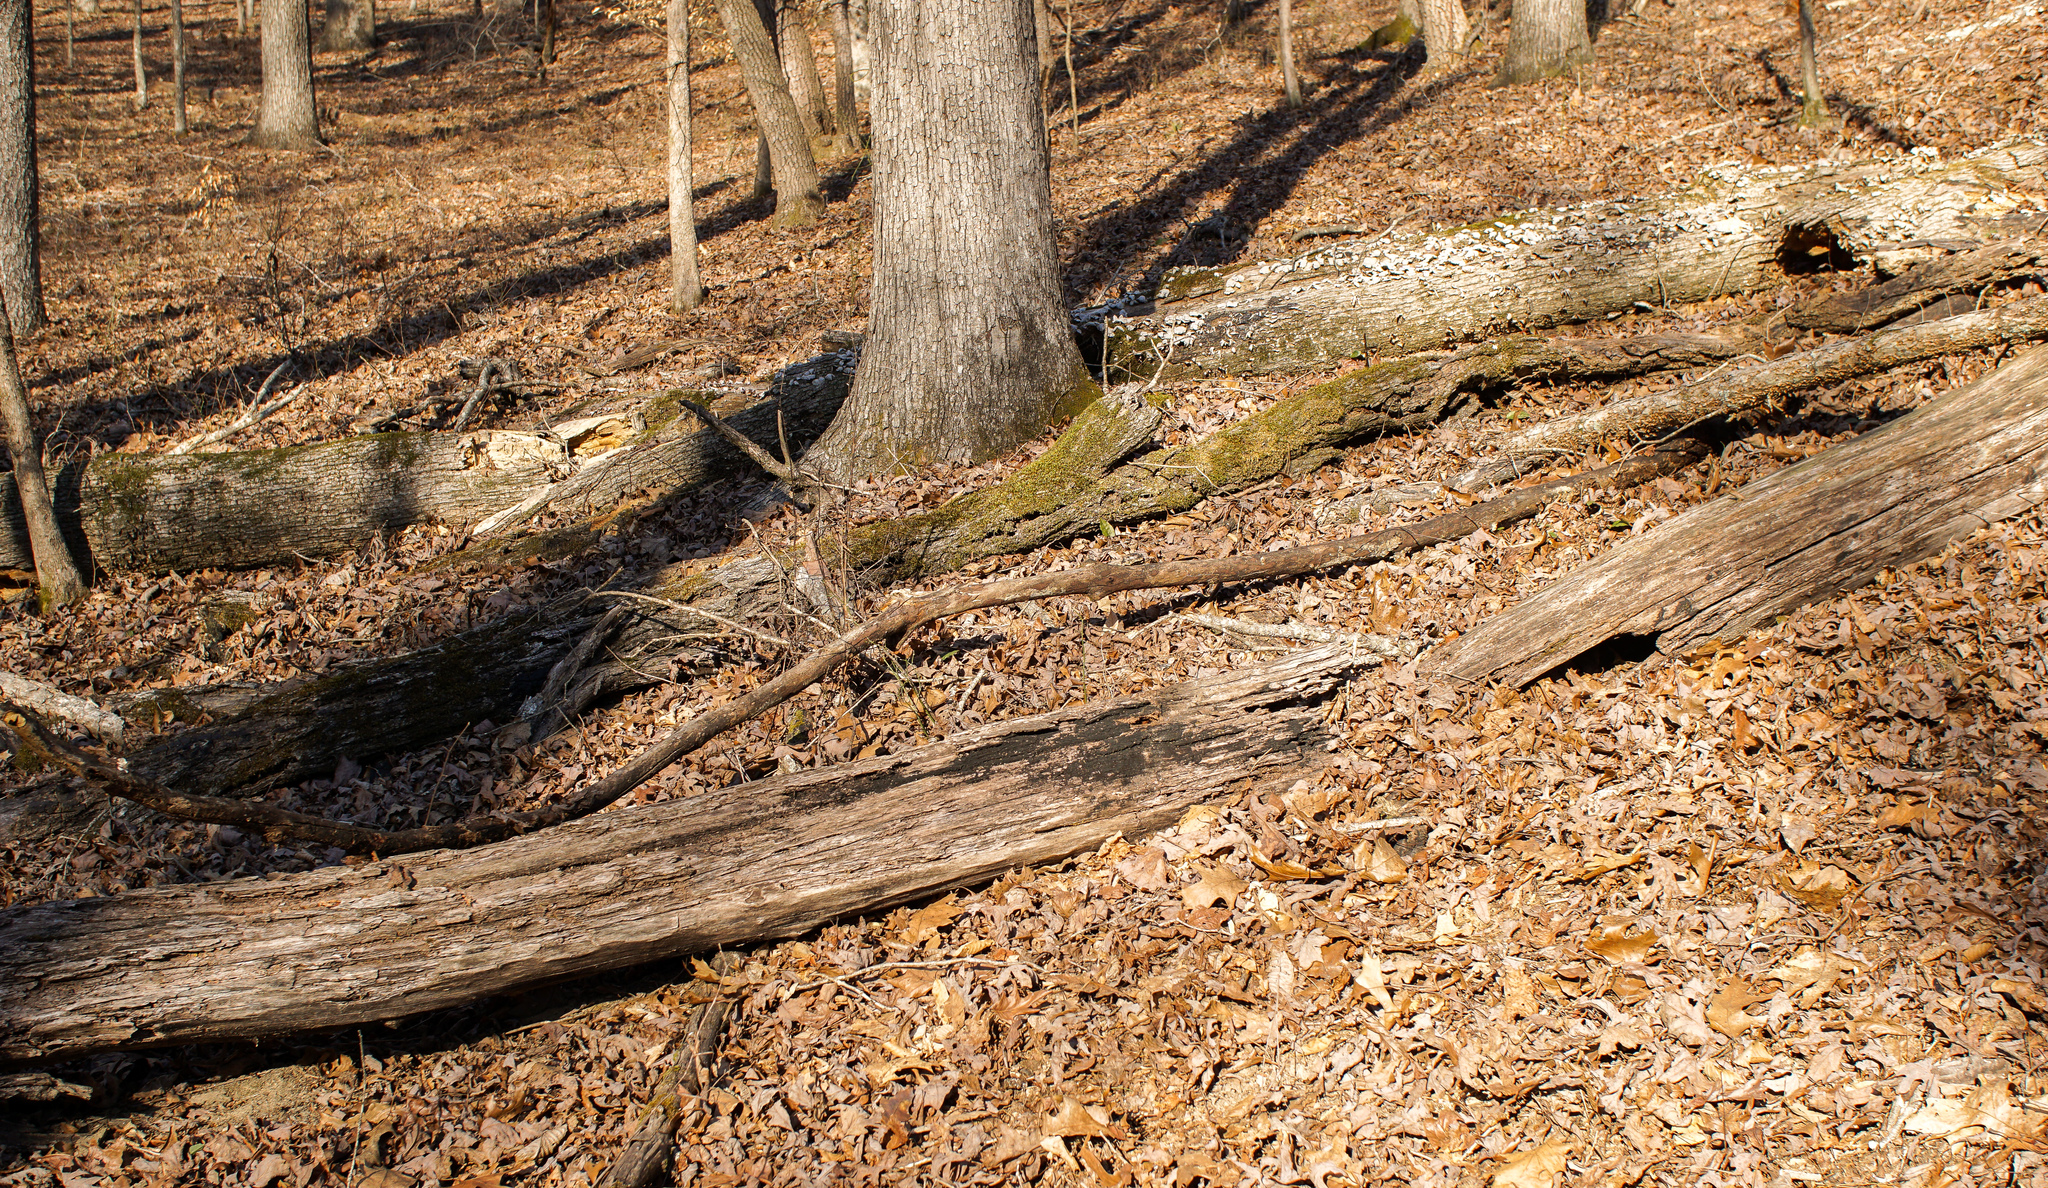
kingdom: Fungi
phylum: Ascomycota
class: Dothideomycetes
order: Mytilinidiales
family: Gloniaceae
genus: Glonium
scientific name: Glonium stellatum
